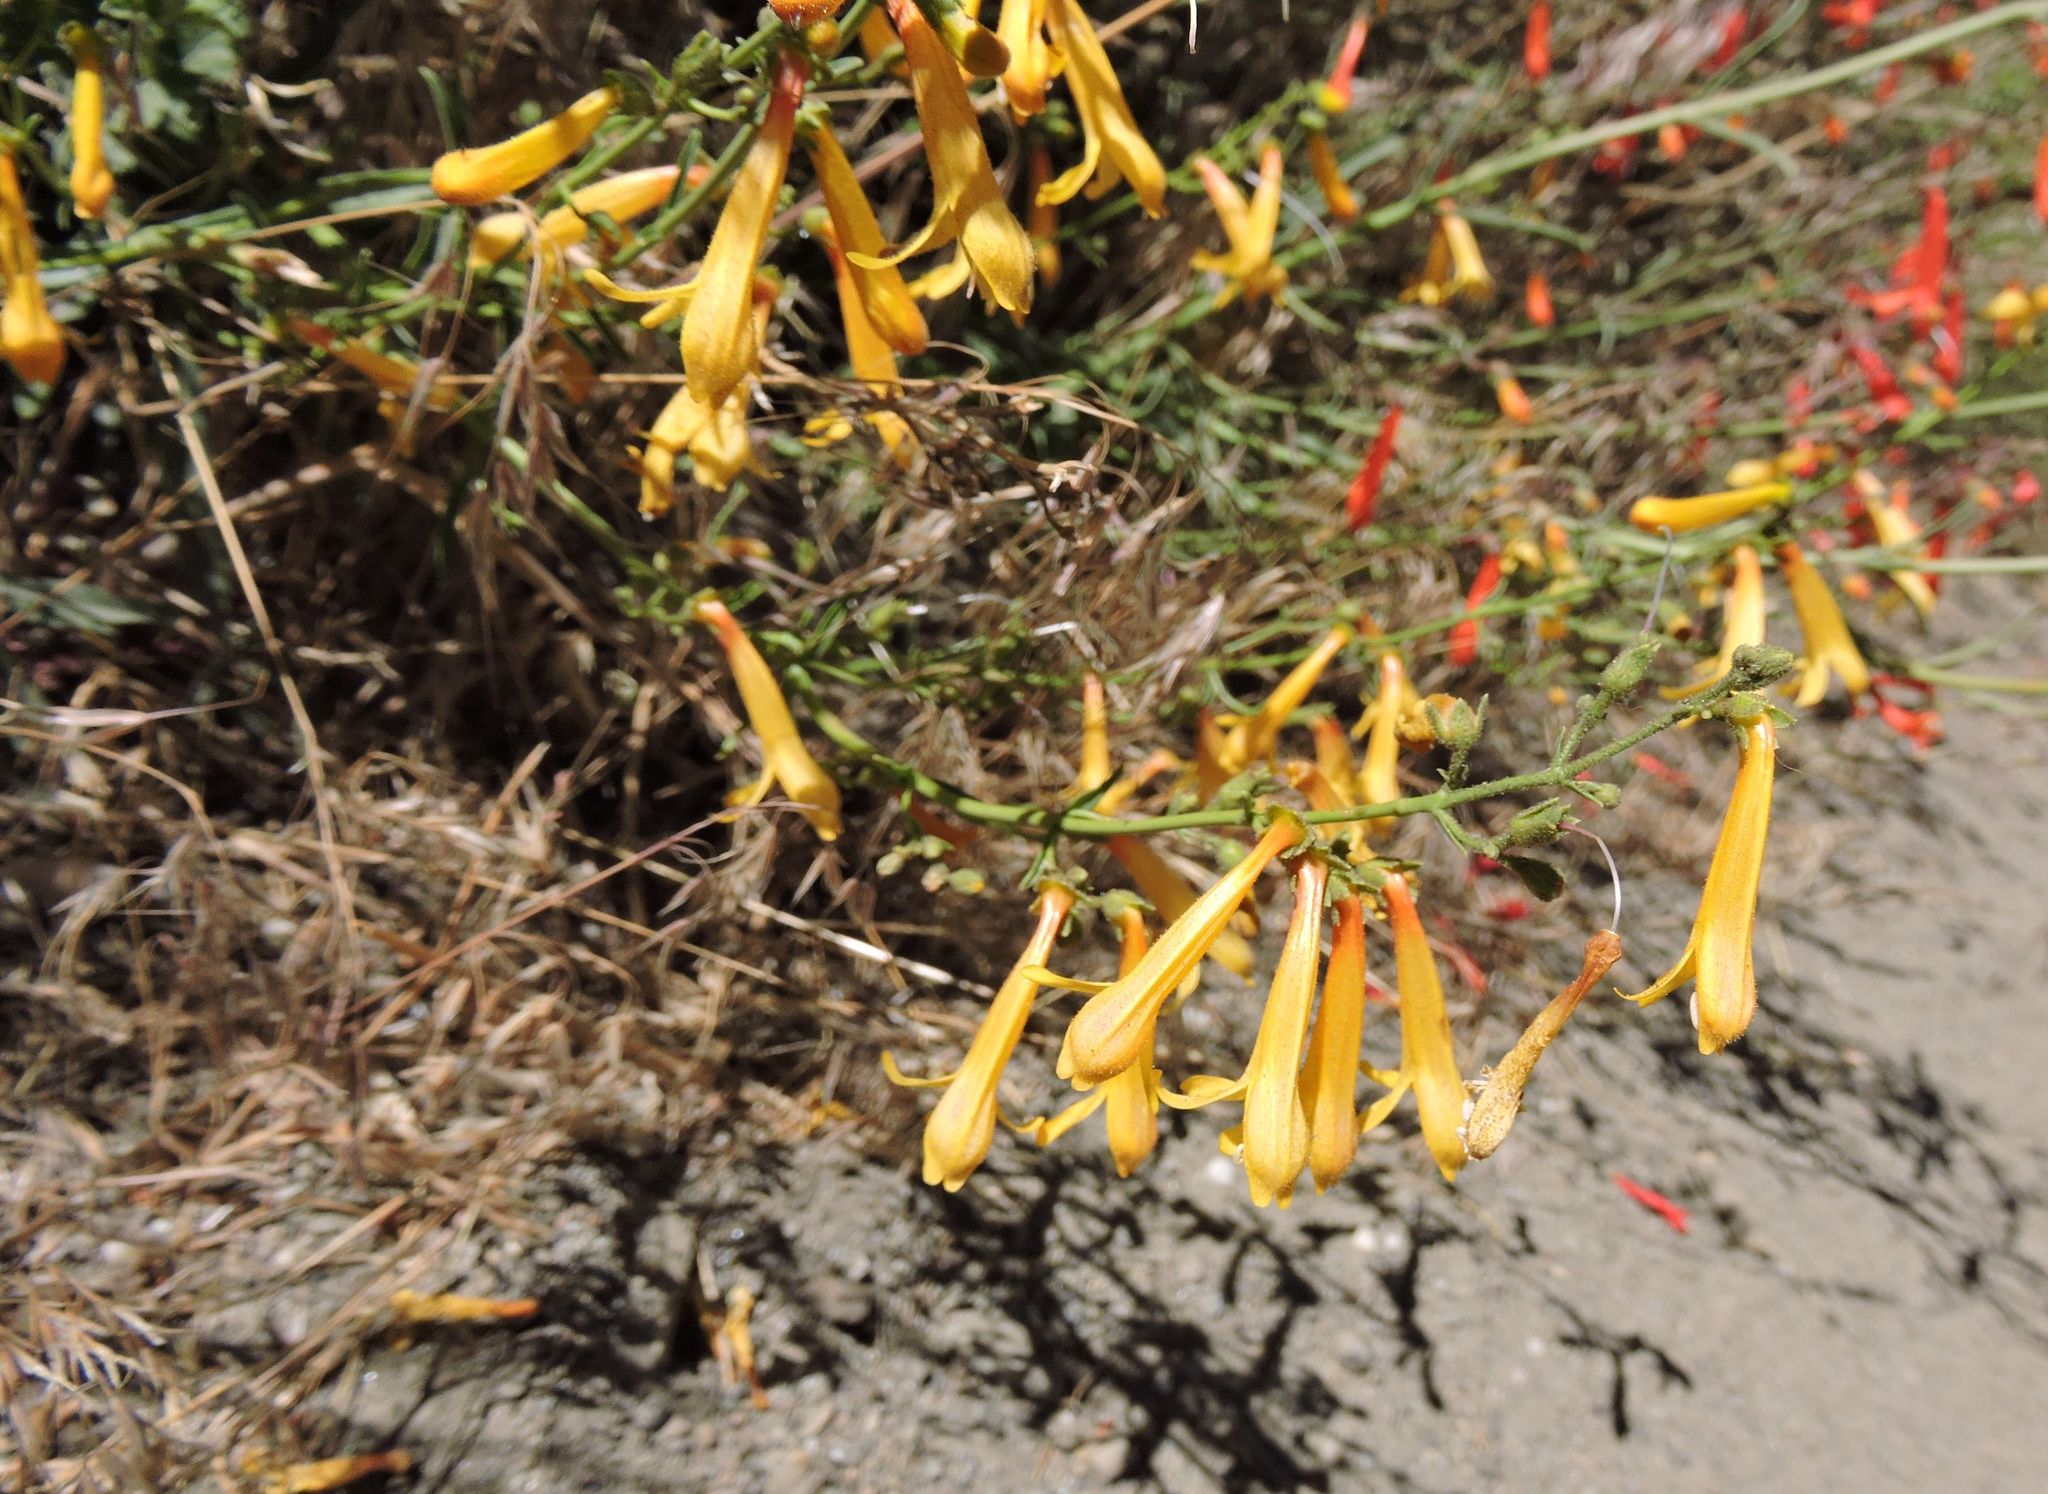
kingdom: Plantae
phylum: Tracheophyta
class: Magnoliopsida
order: Lamiales
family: Plantaginaceae
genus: Penstemon
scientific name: Penstemon rostriflorus
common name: Bridges's penstemon
